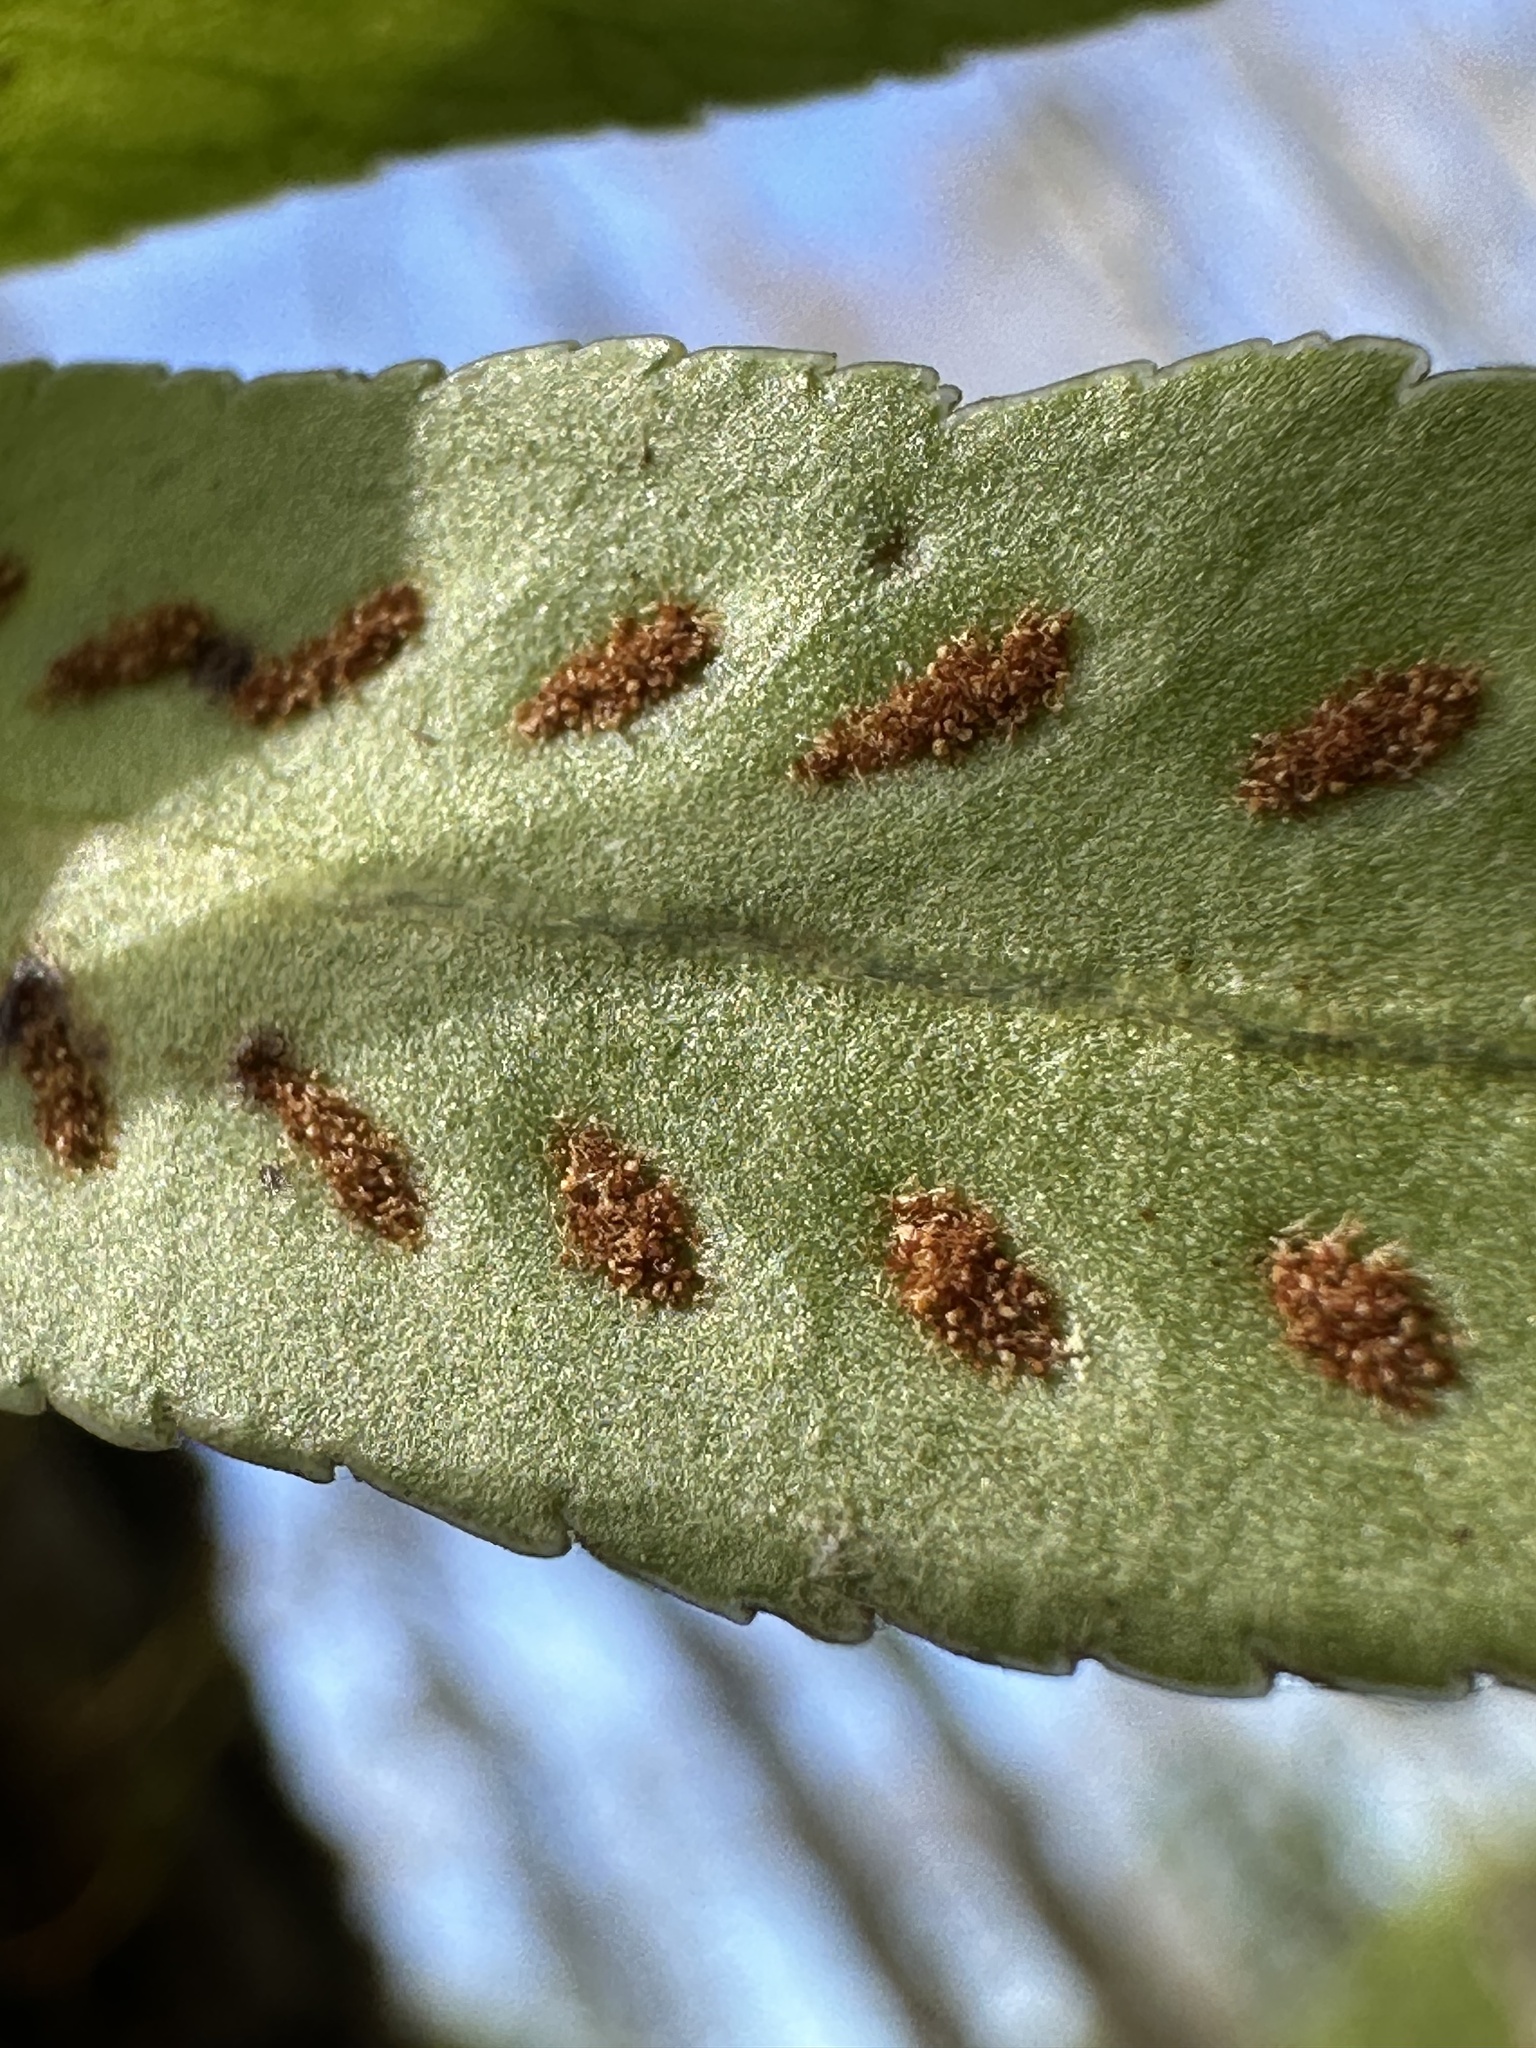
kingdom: Plantae
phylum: Tracheophyta
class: Polypodiopsida
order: Polypodiales
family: Polypodiaceae
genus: Synammia
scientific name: Synammia feuillei
